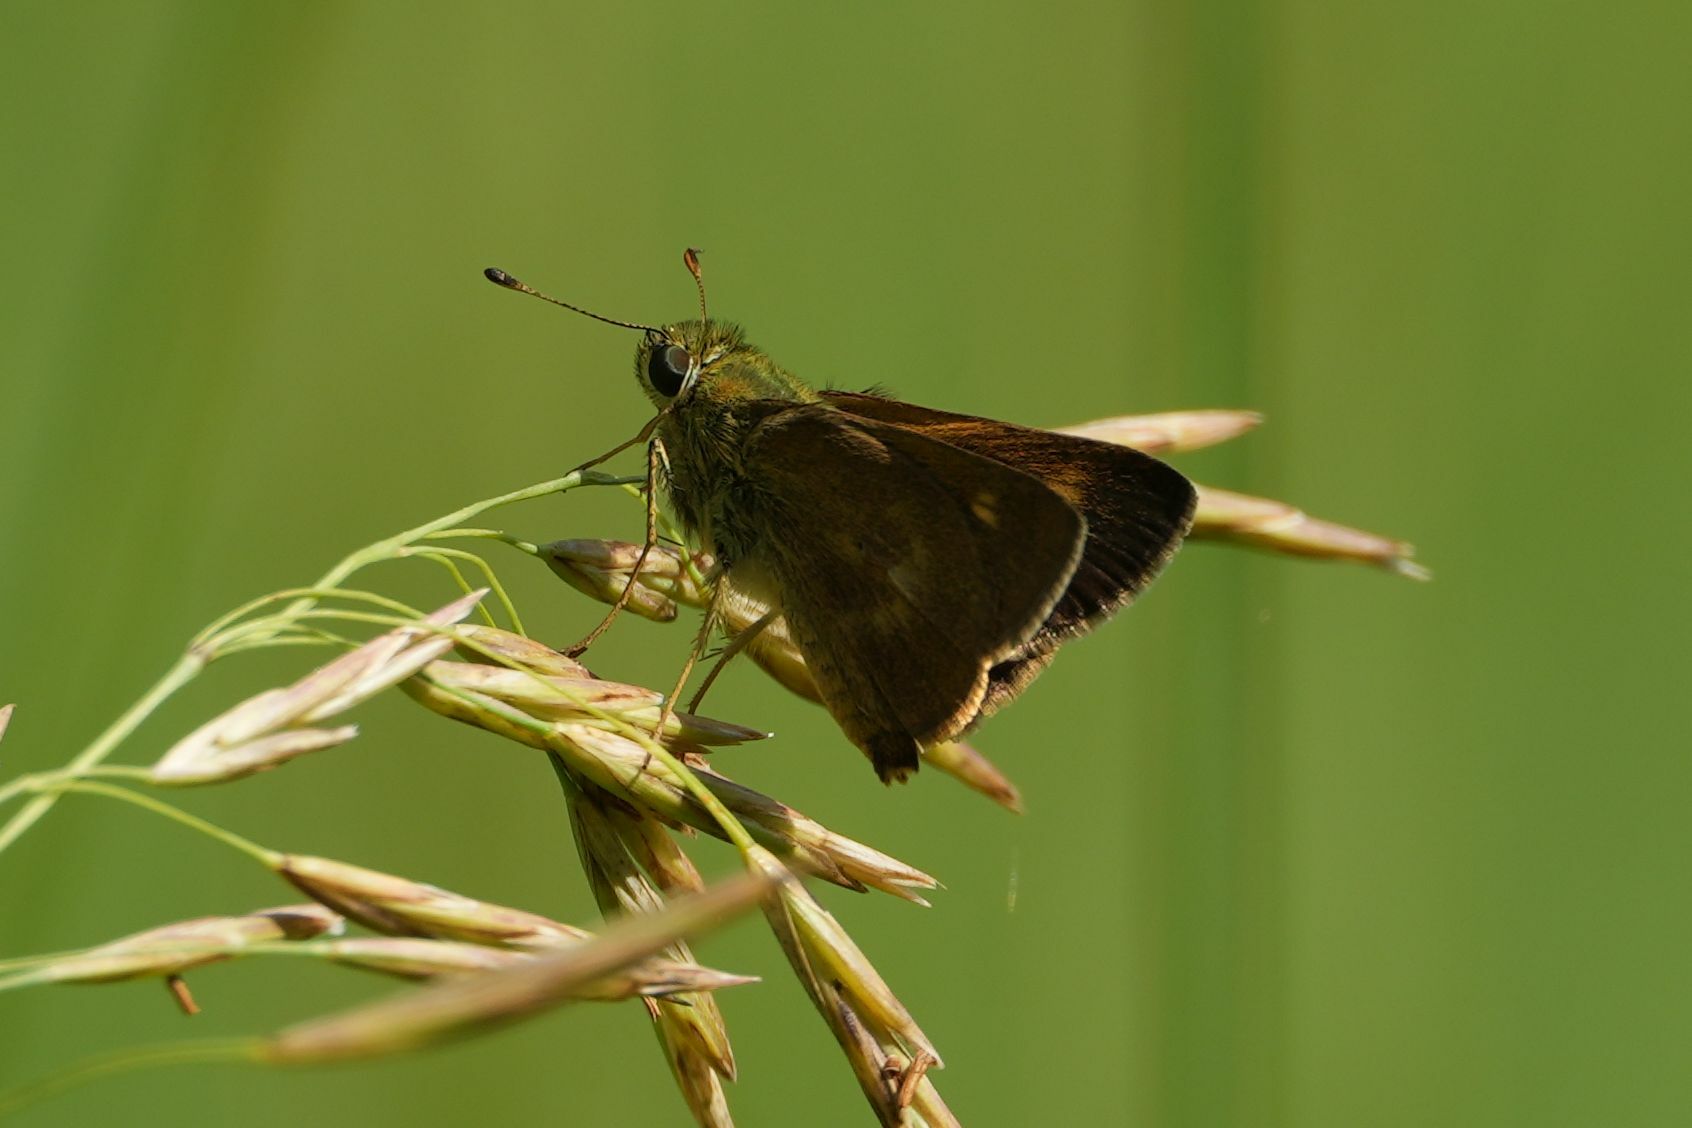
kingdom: Animalia
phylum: Arthropoda
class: Insecta
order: Lepidoptera
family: Hesperiidae
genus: Polites
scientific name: Polites egeremet
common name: Northern broken-dash
